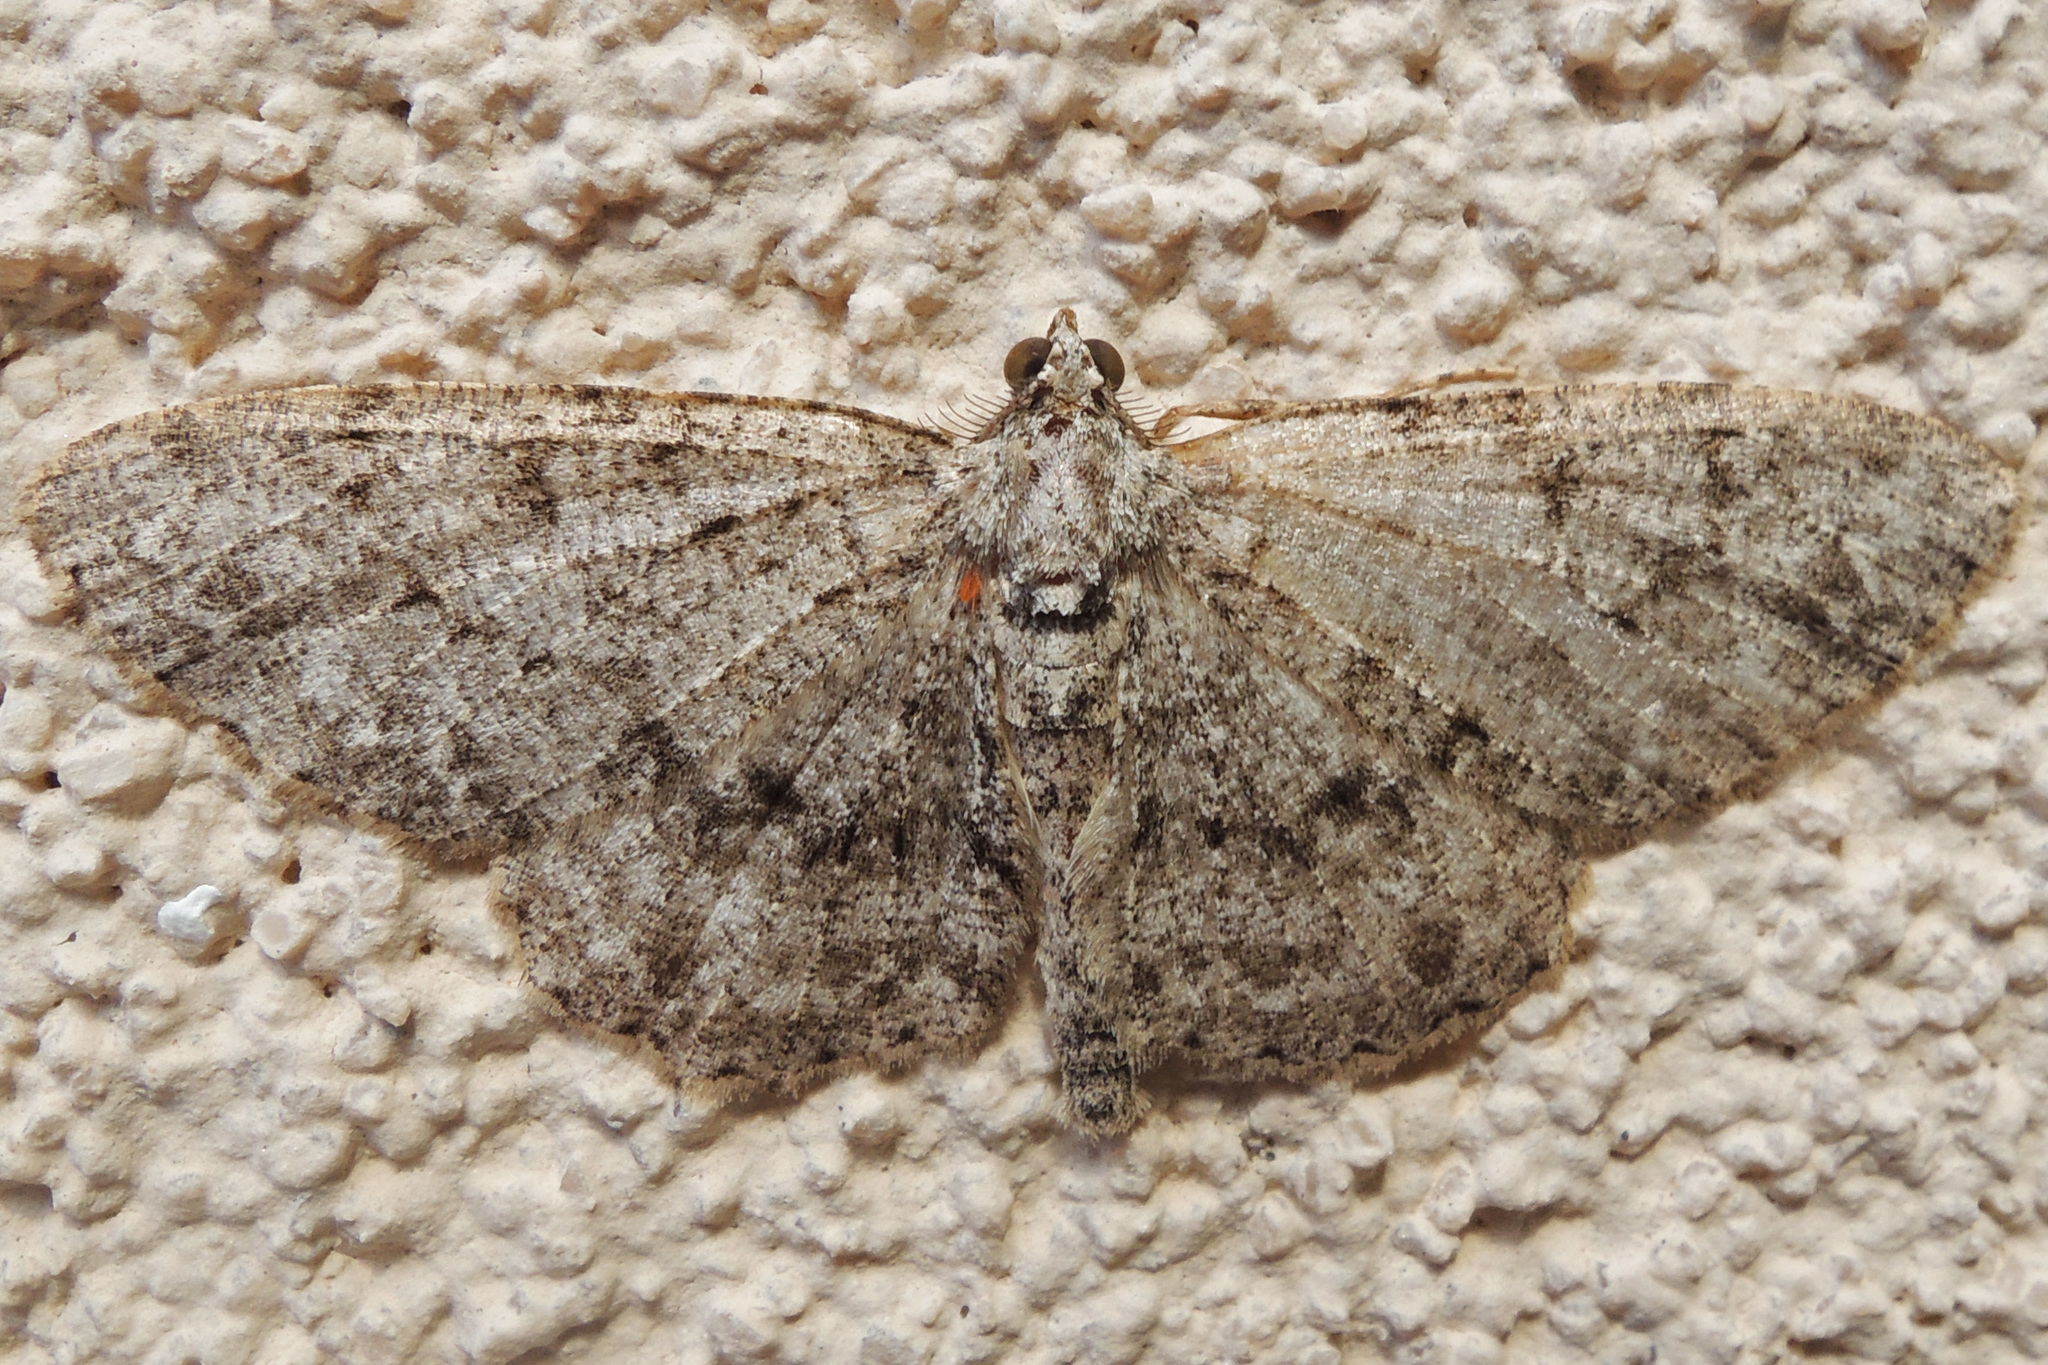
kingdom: Animalia
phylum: Arthropoda
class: Insecta
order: Lepidoptera
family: Geometridae
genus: Protoboarmia
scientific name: Protoboarmia porcelaria
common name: Porcelain gray
